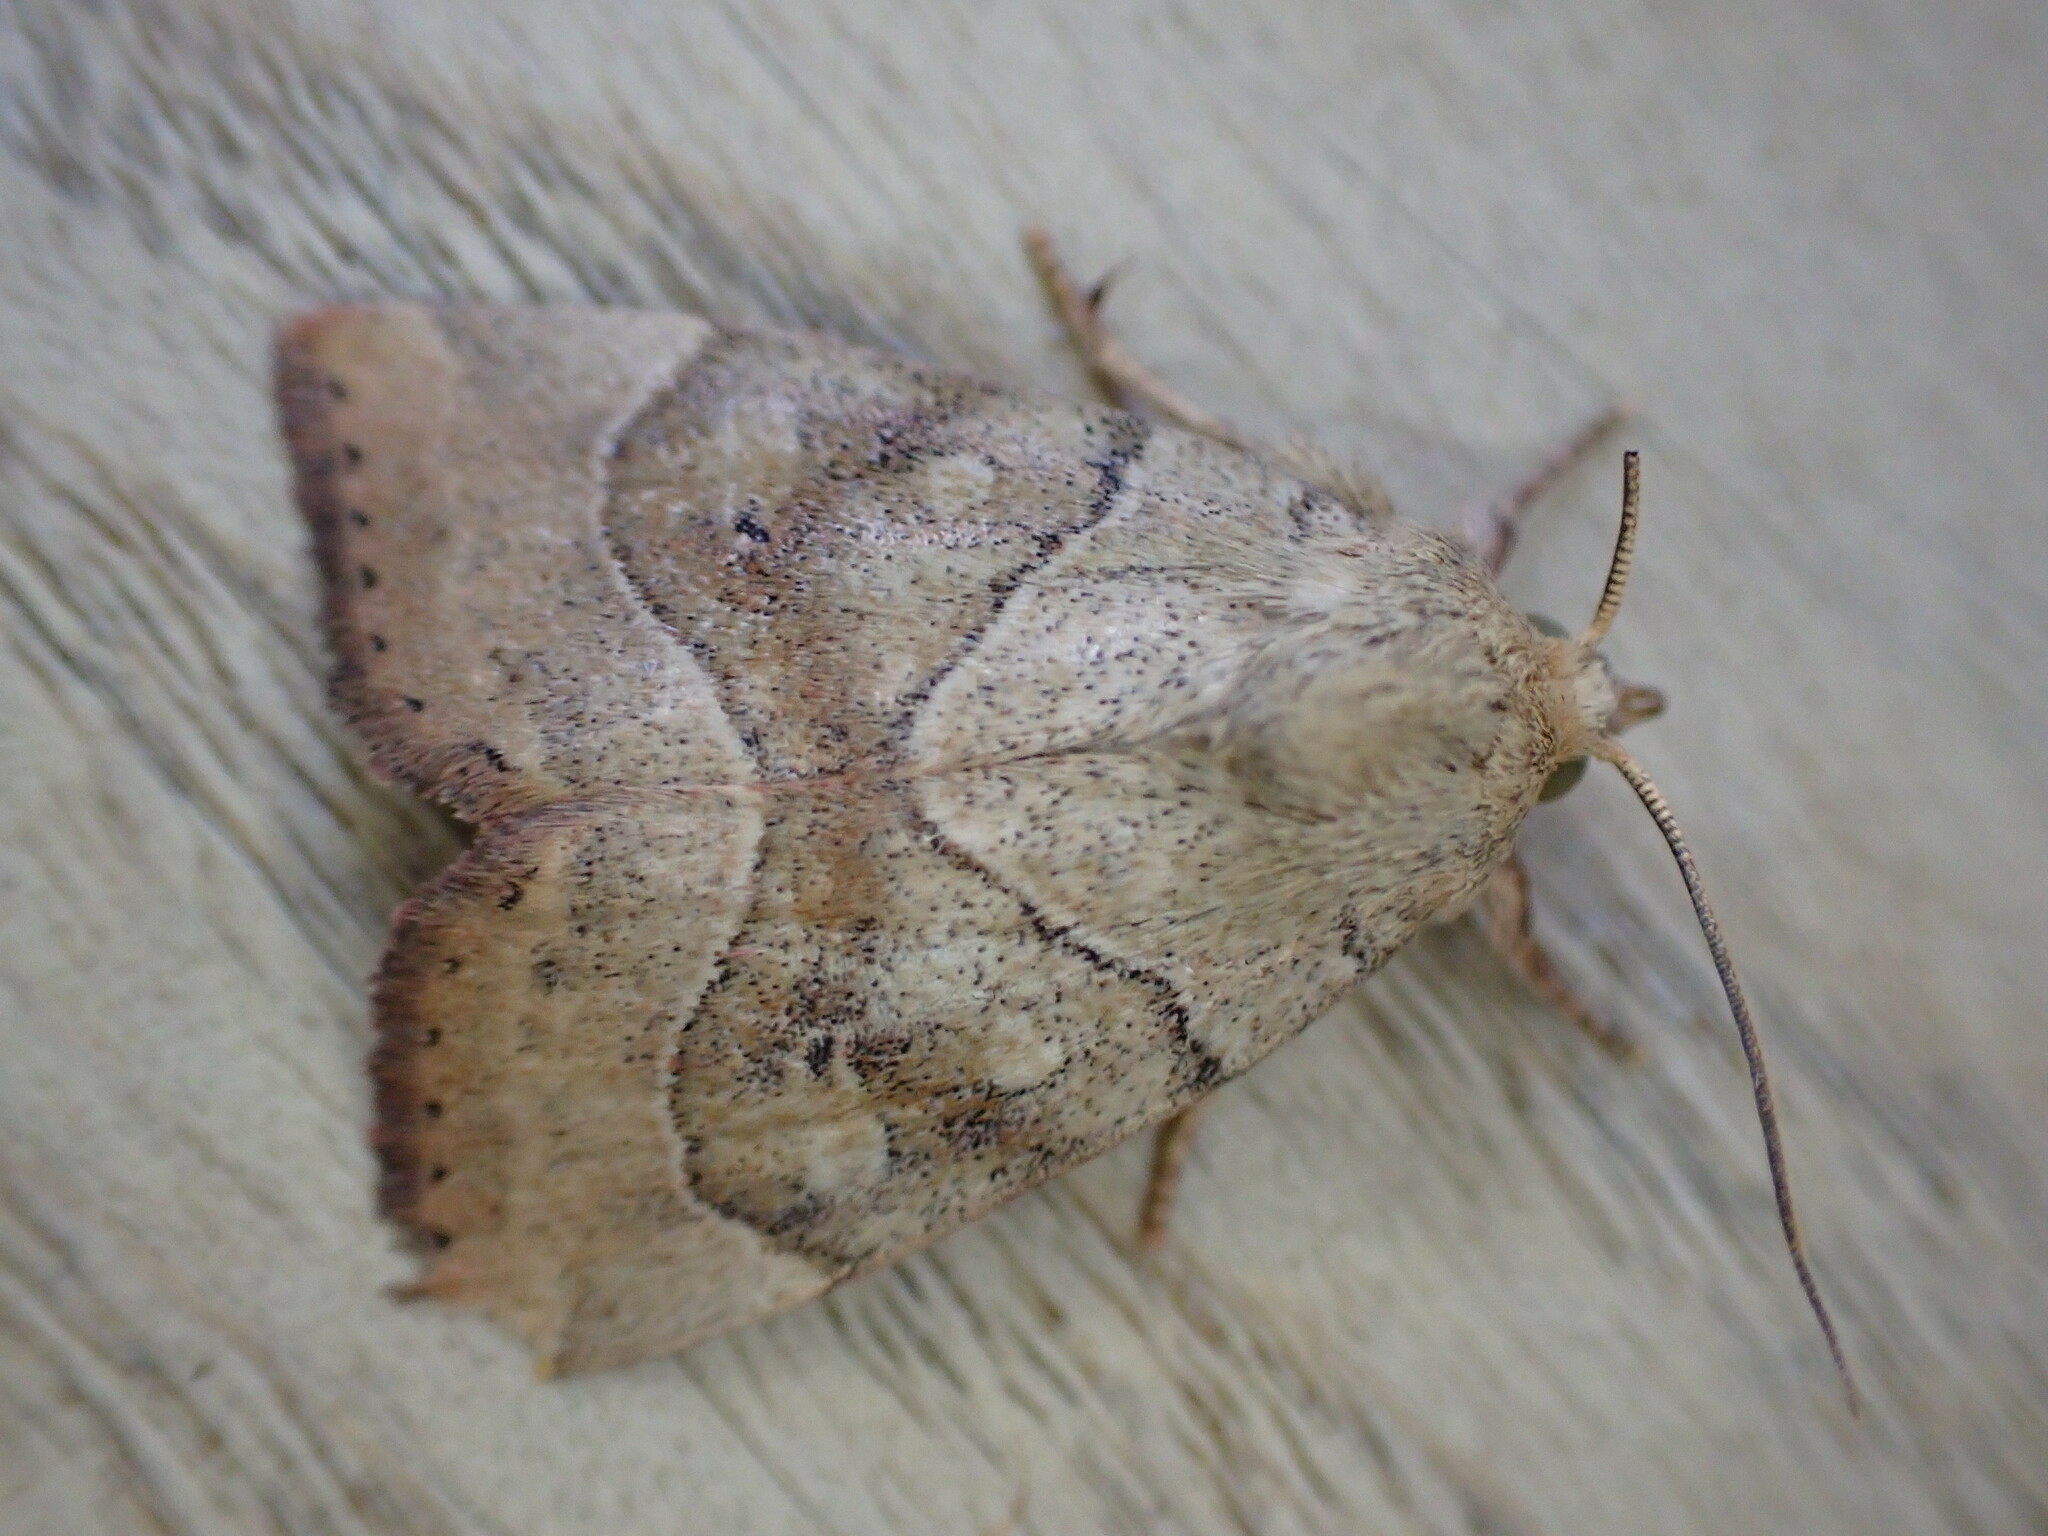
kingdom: Animalia
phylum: Arthropoda
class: Insecta
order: Lepidoptera
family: Noctuidae
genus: Cosmia
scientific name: Cosmia trapezina
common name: Dun-bar
